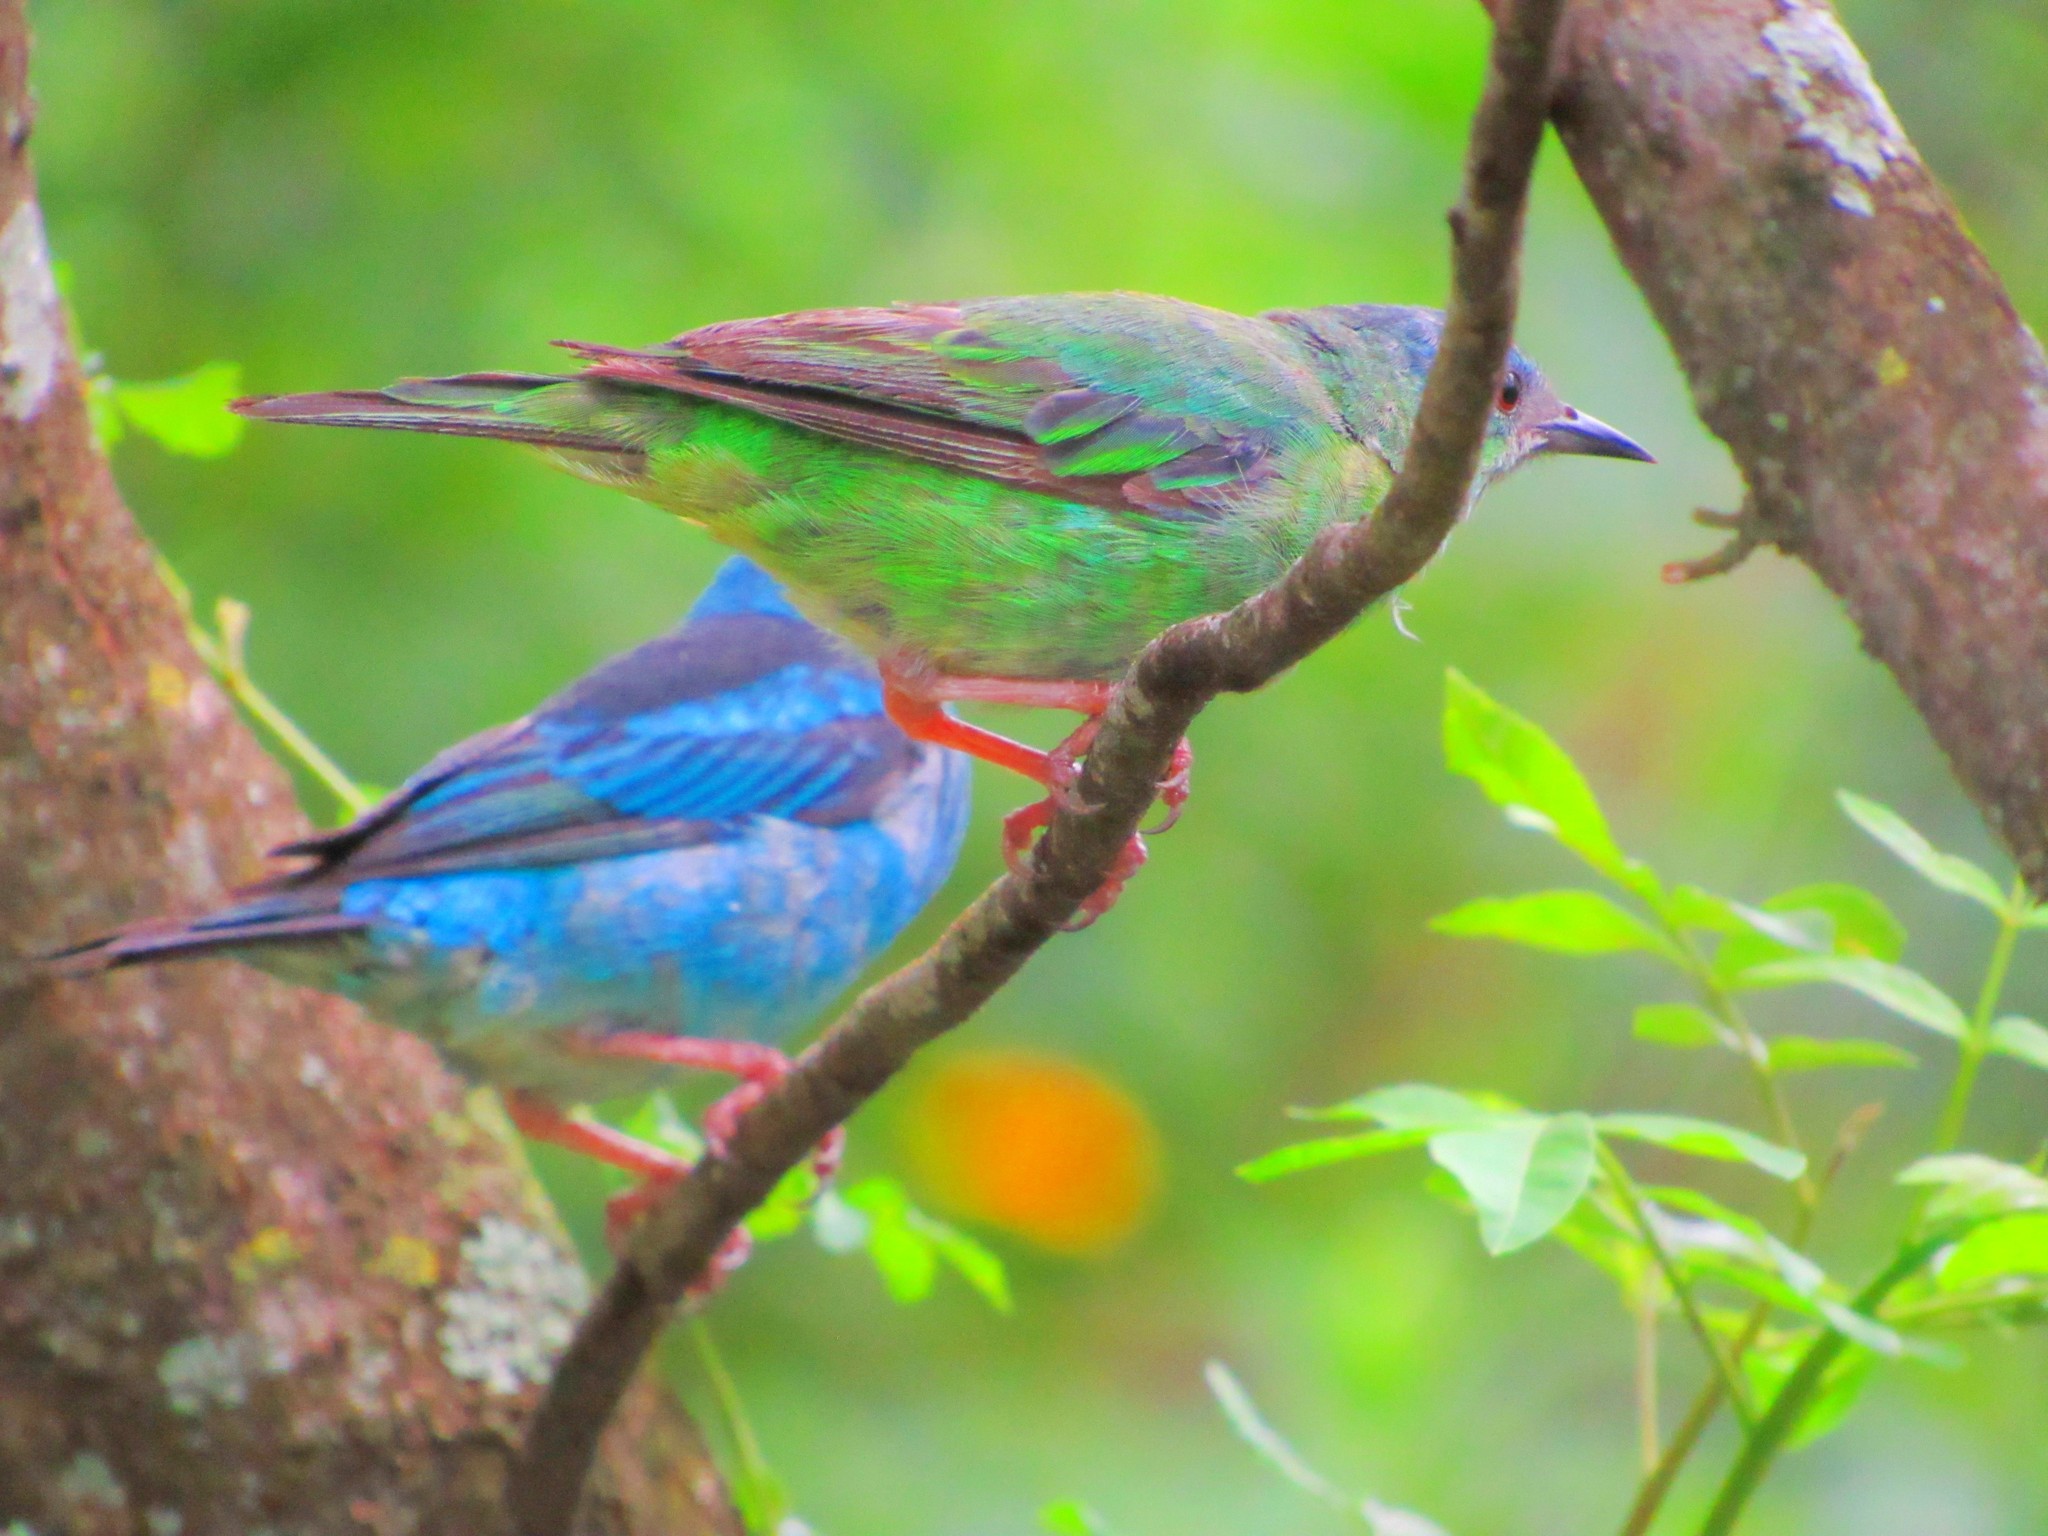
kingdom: Animalia
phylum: Chordata
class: Aves
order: Passeriformes
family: Thraupidae
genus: Dacnis
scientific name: Dacnis cayana
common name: Blue dacnis
